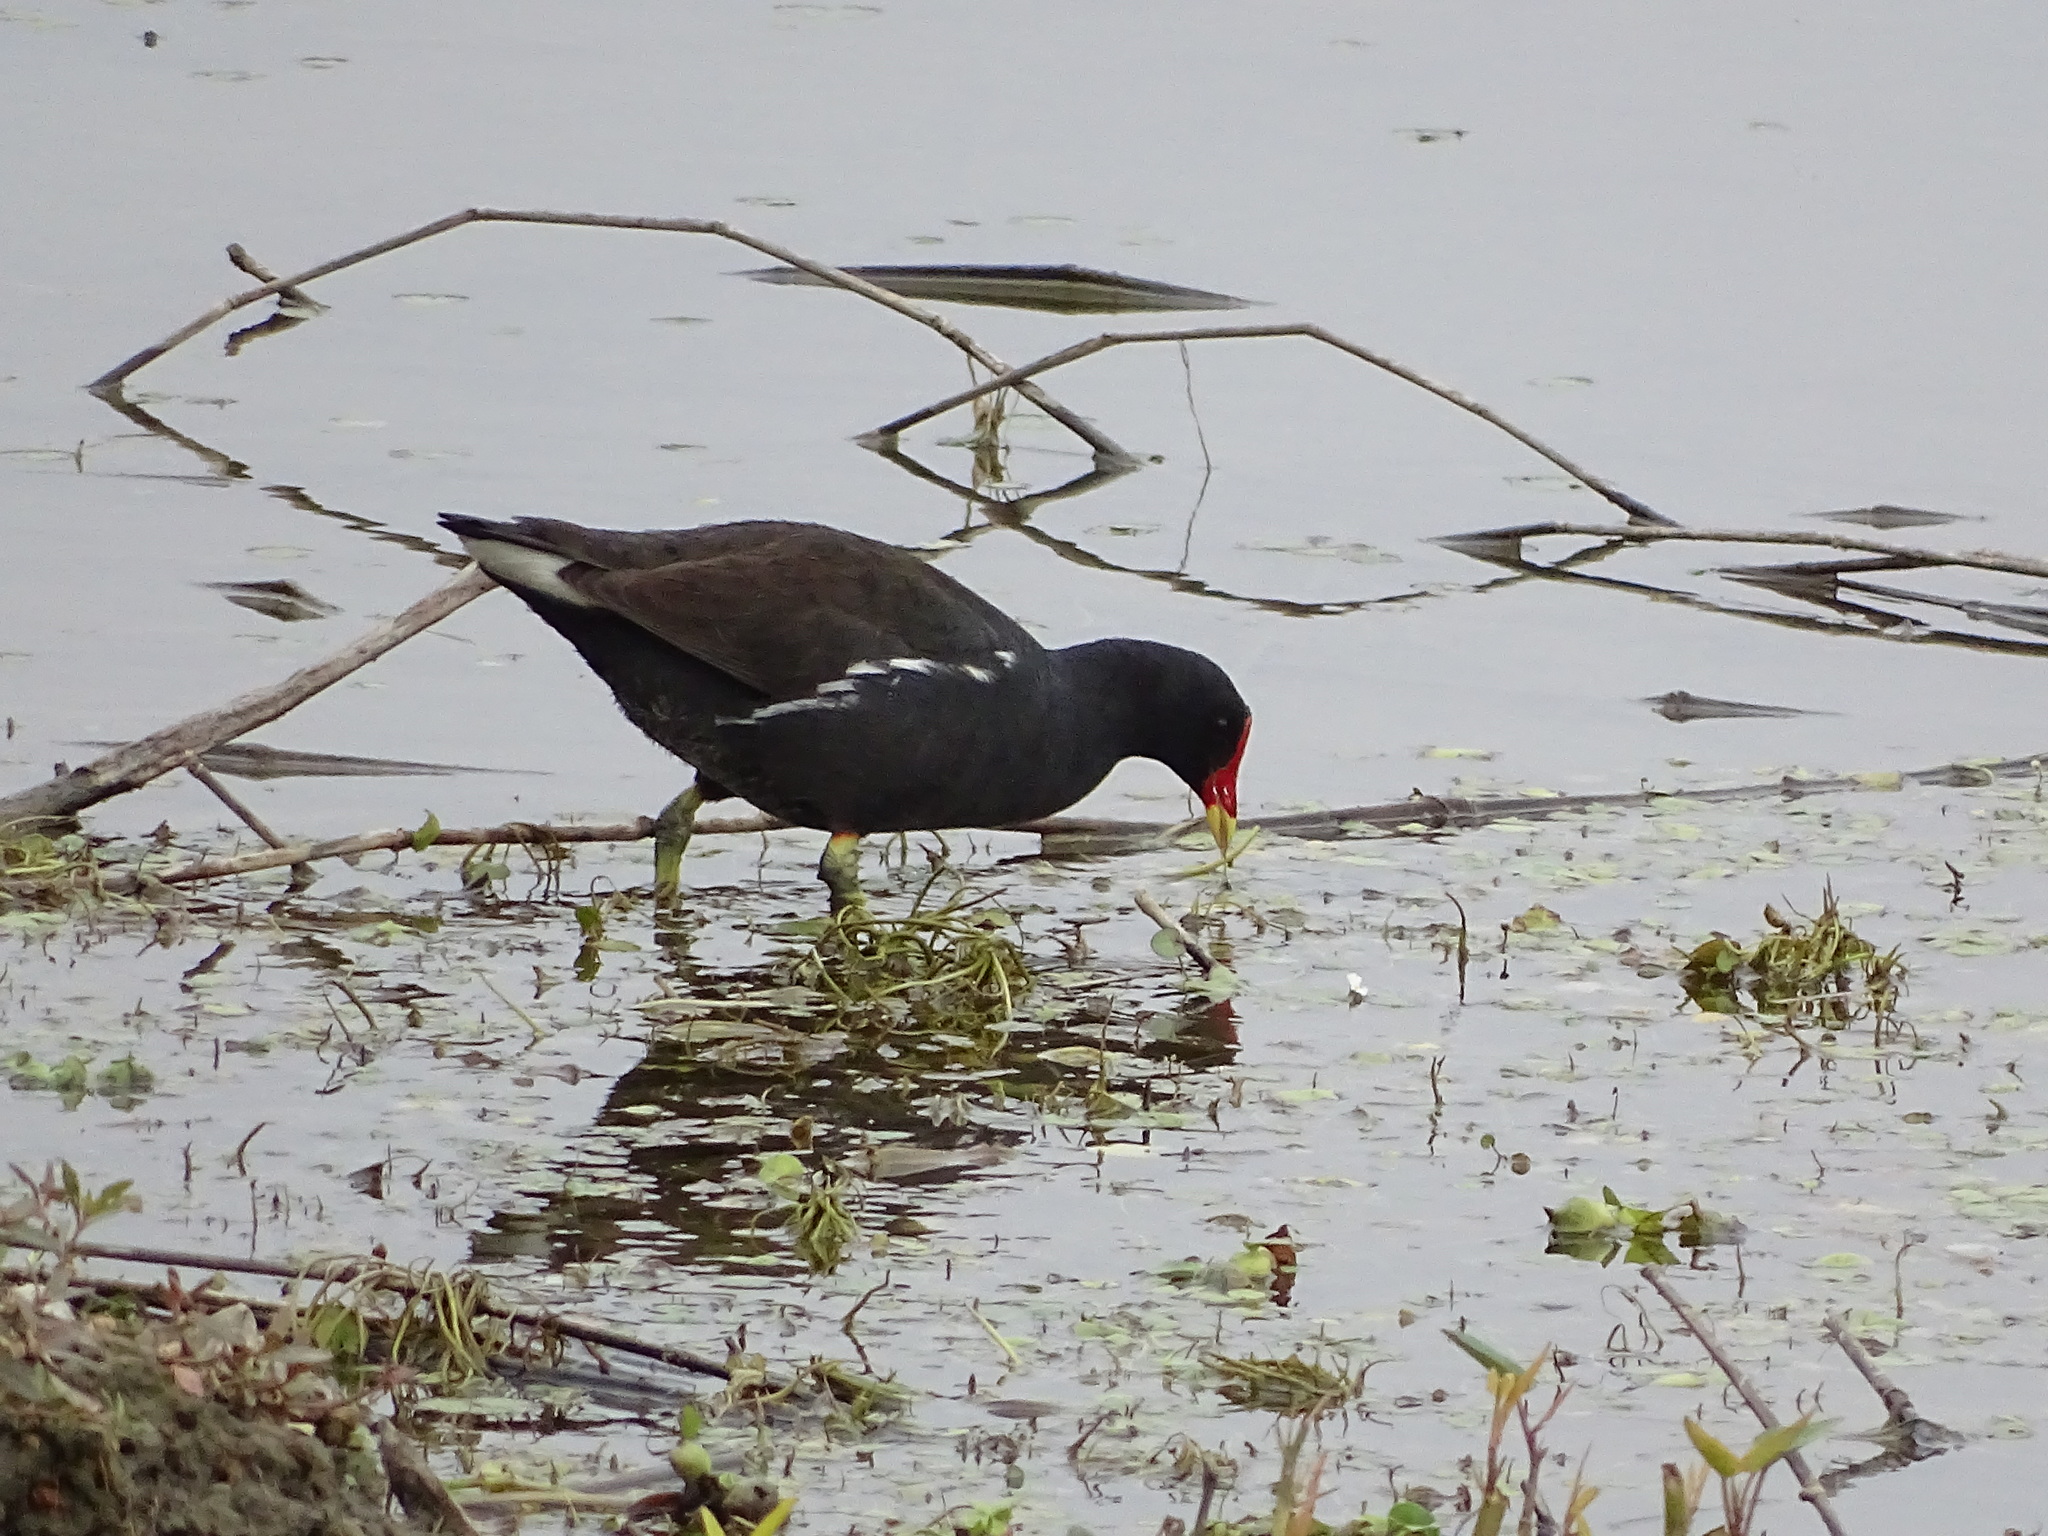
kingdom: Animalia
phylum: Chordata
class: Aves
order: Gruiformes
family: Rallidae
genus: Gallinula
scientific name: Gallinula chloropus
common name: Common moorhen
